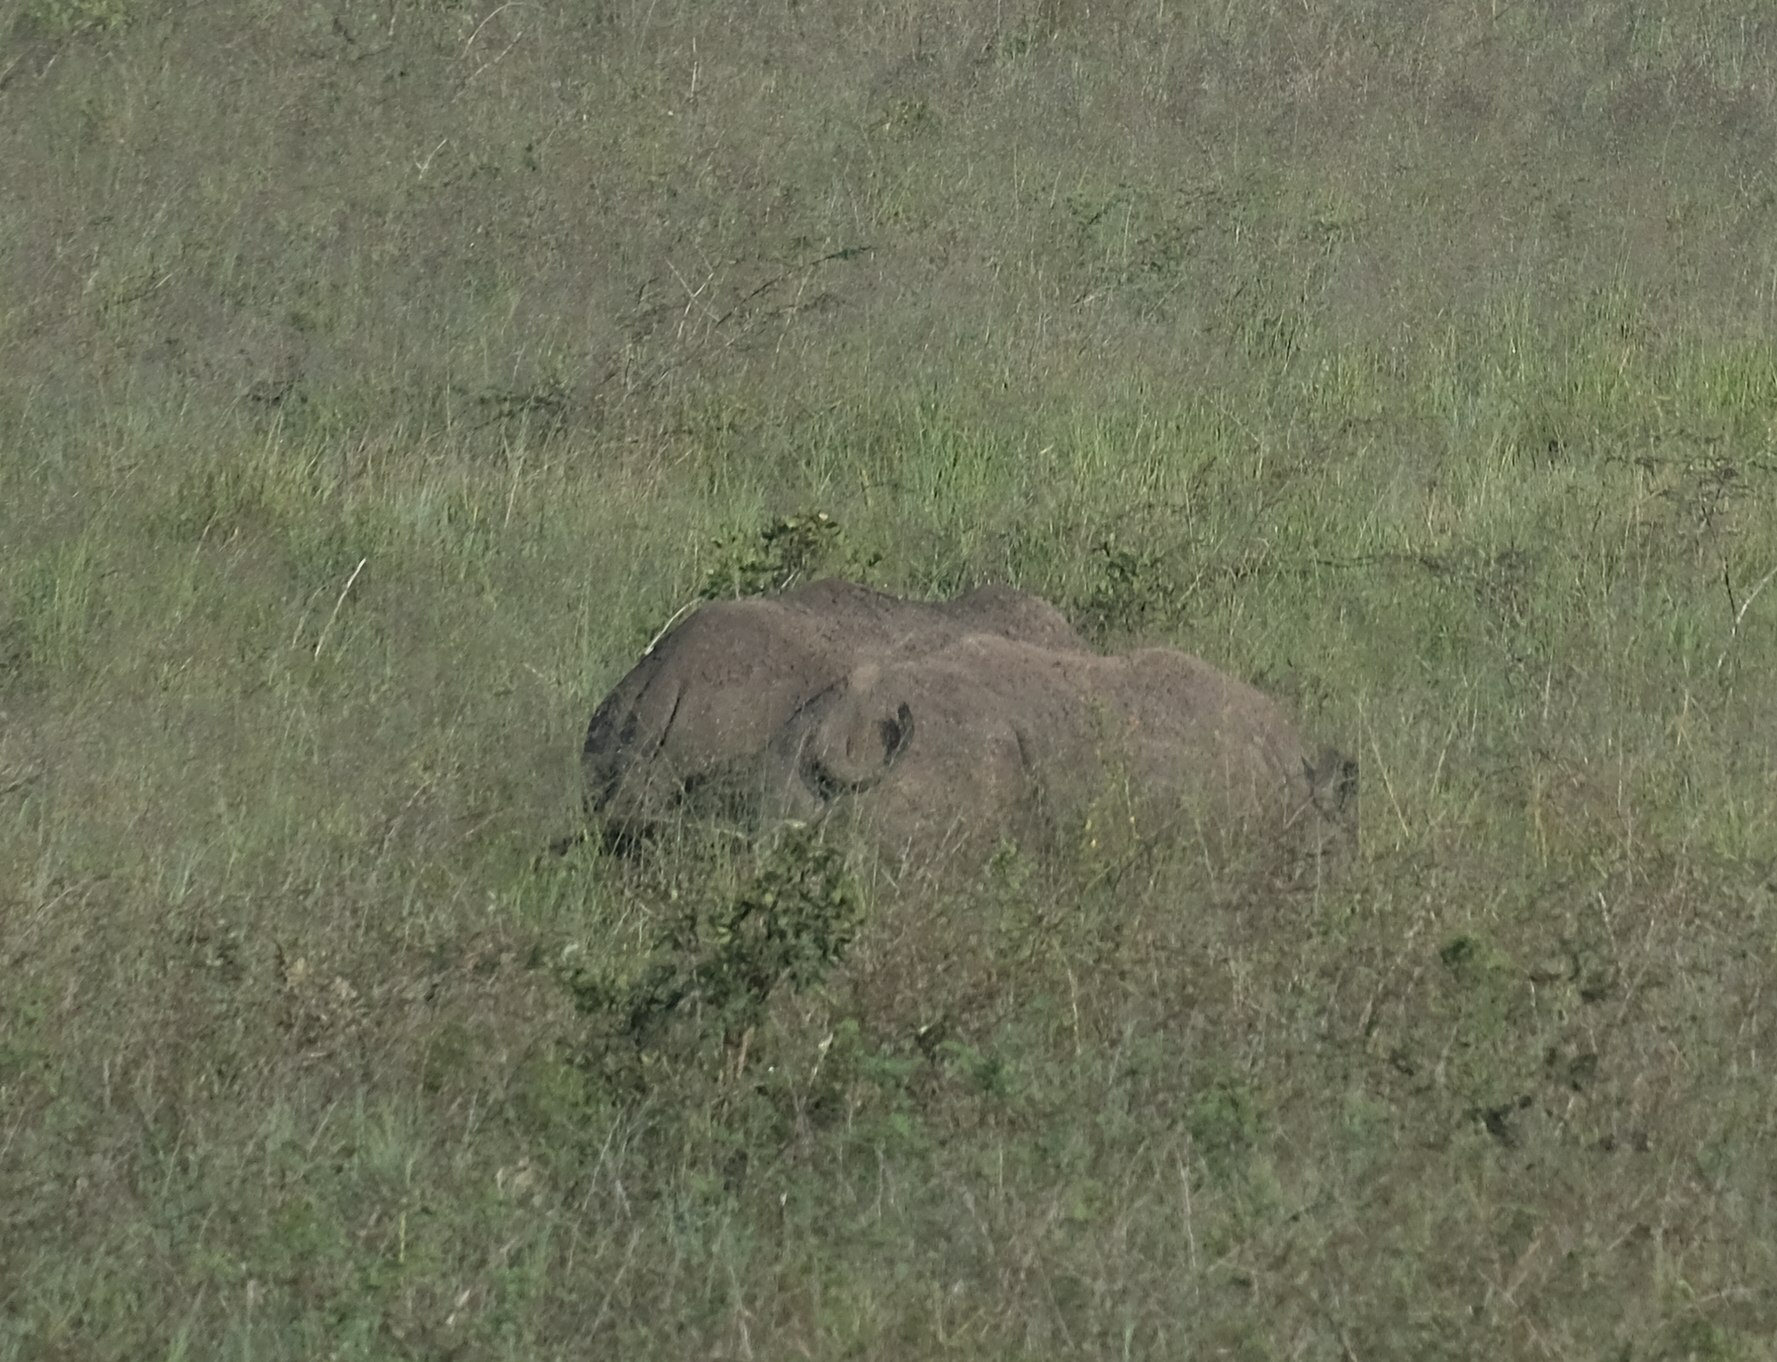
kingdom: Animalia
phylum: Chordata
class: Mammalia
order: Perissodactyla
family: Rhinocerotidae
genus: Diceros
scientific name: Diceros bicornis
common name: Black rhinoceros
